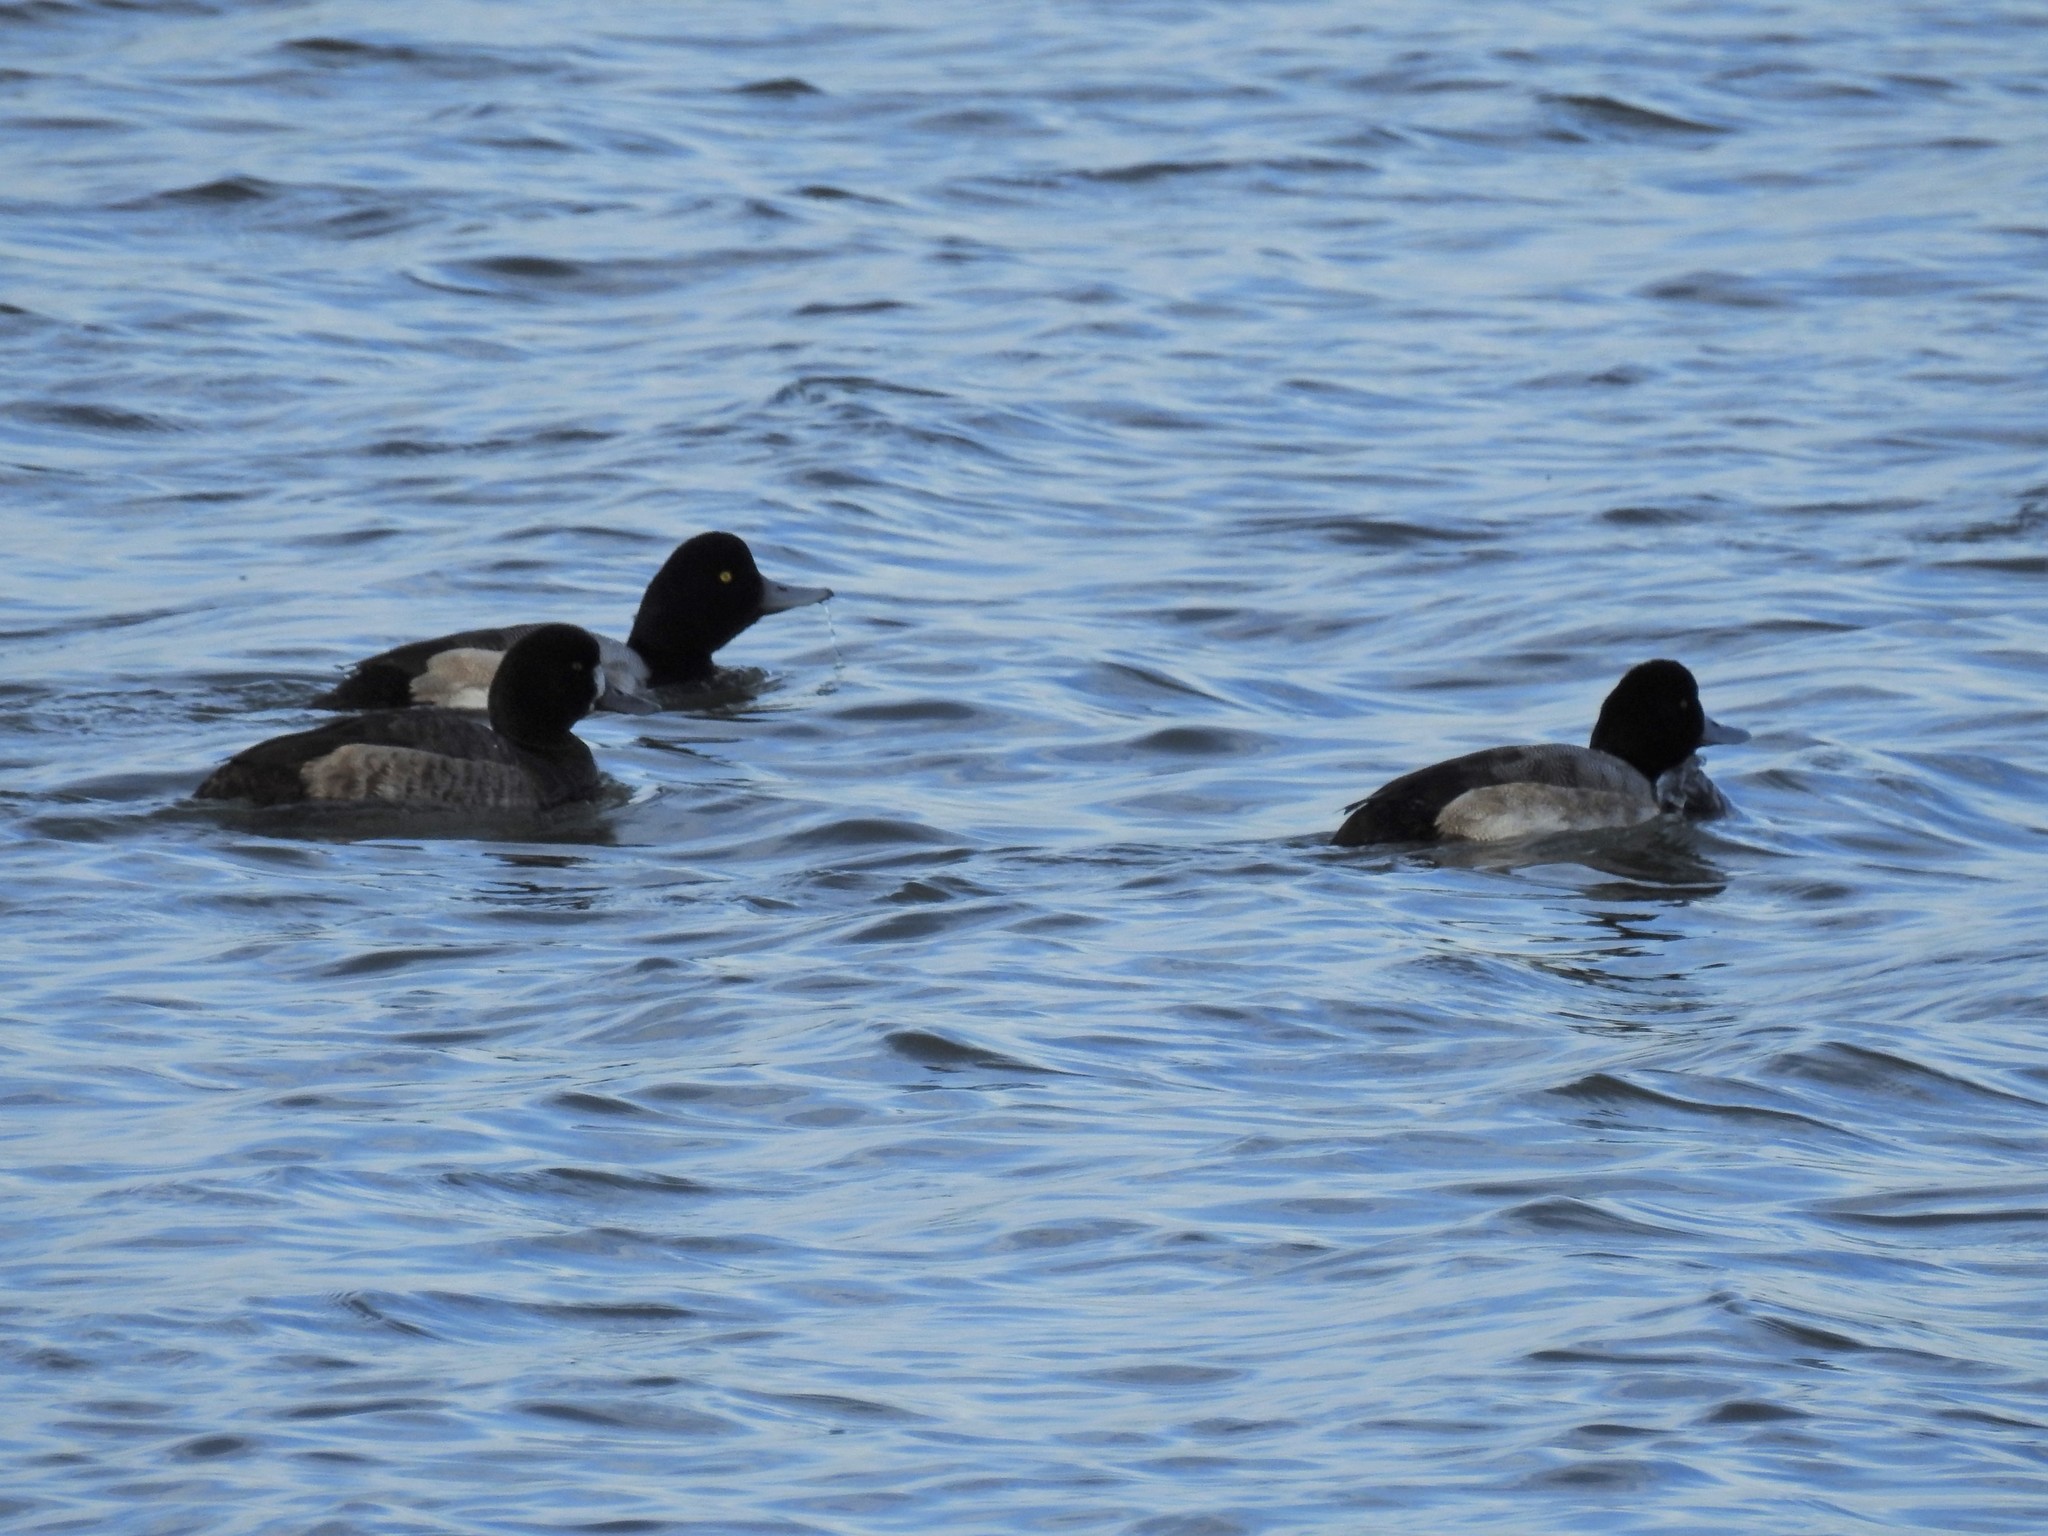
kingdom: Animalia
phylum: Chordata
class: Aves
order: Anseriformes
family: Anatidae
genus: Aythya
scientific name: Aythya marila
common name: Greater scaup
